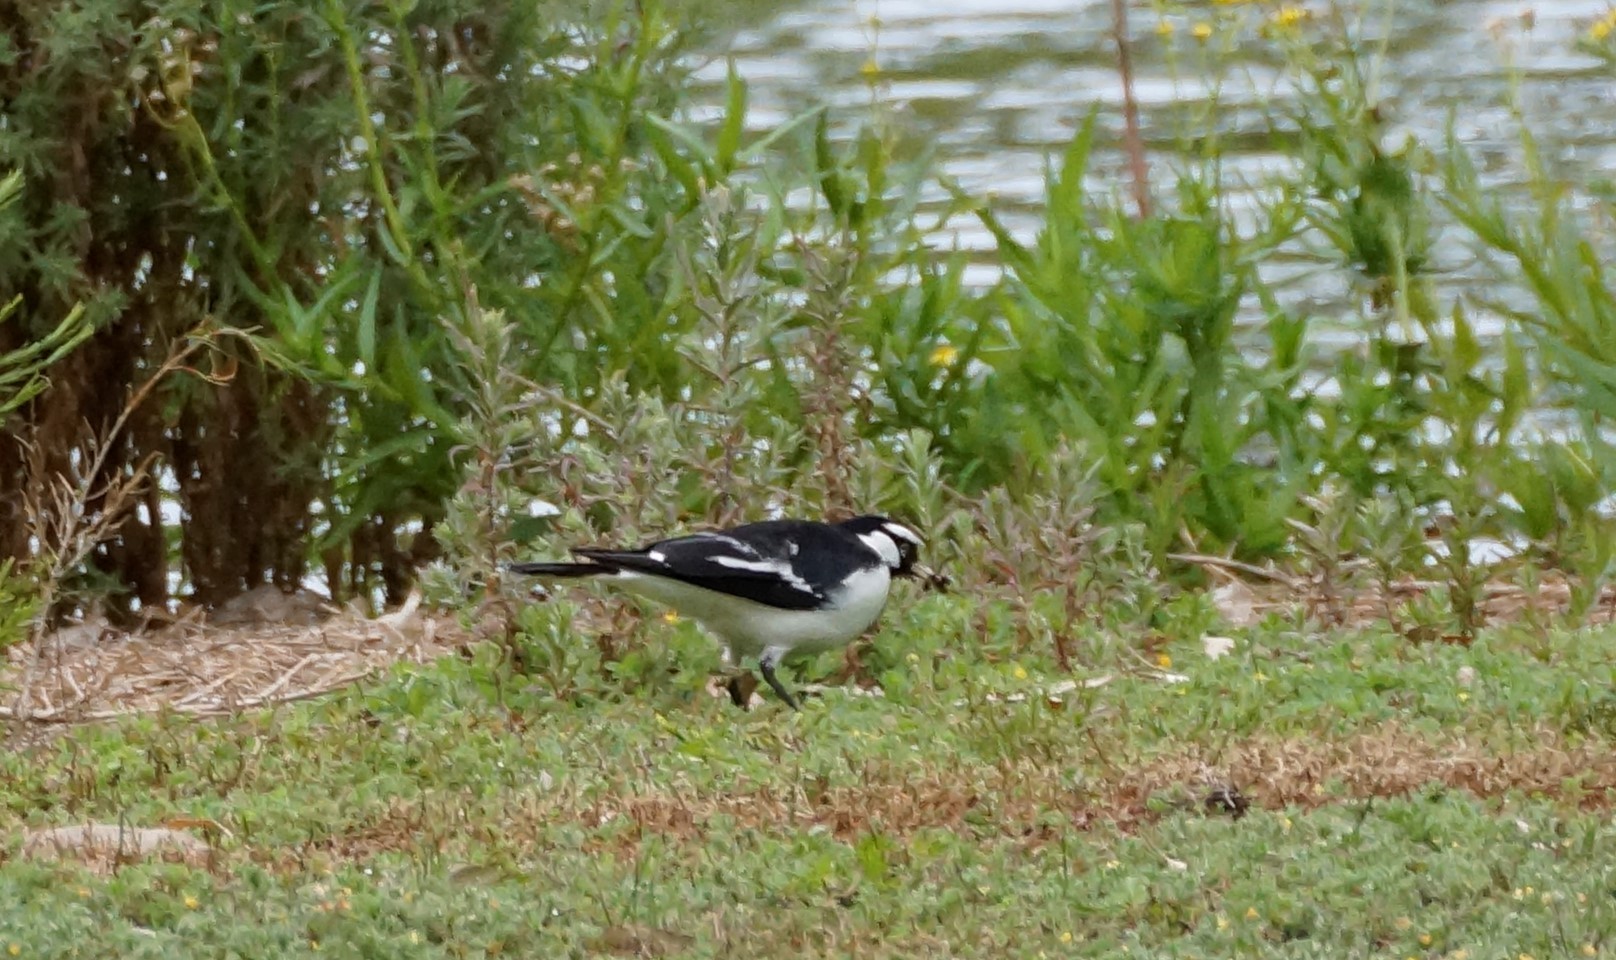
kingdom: Animalia
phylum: Chordata
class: Aves
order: Passeriformes
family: Monarchidae
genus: Grallina
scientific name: Grallina cyanoleuca
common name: Magpie-lark
